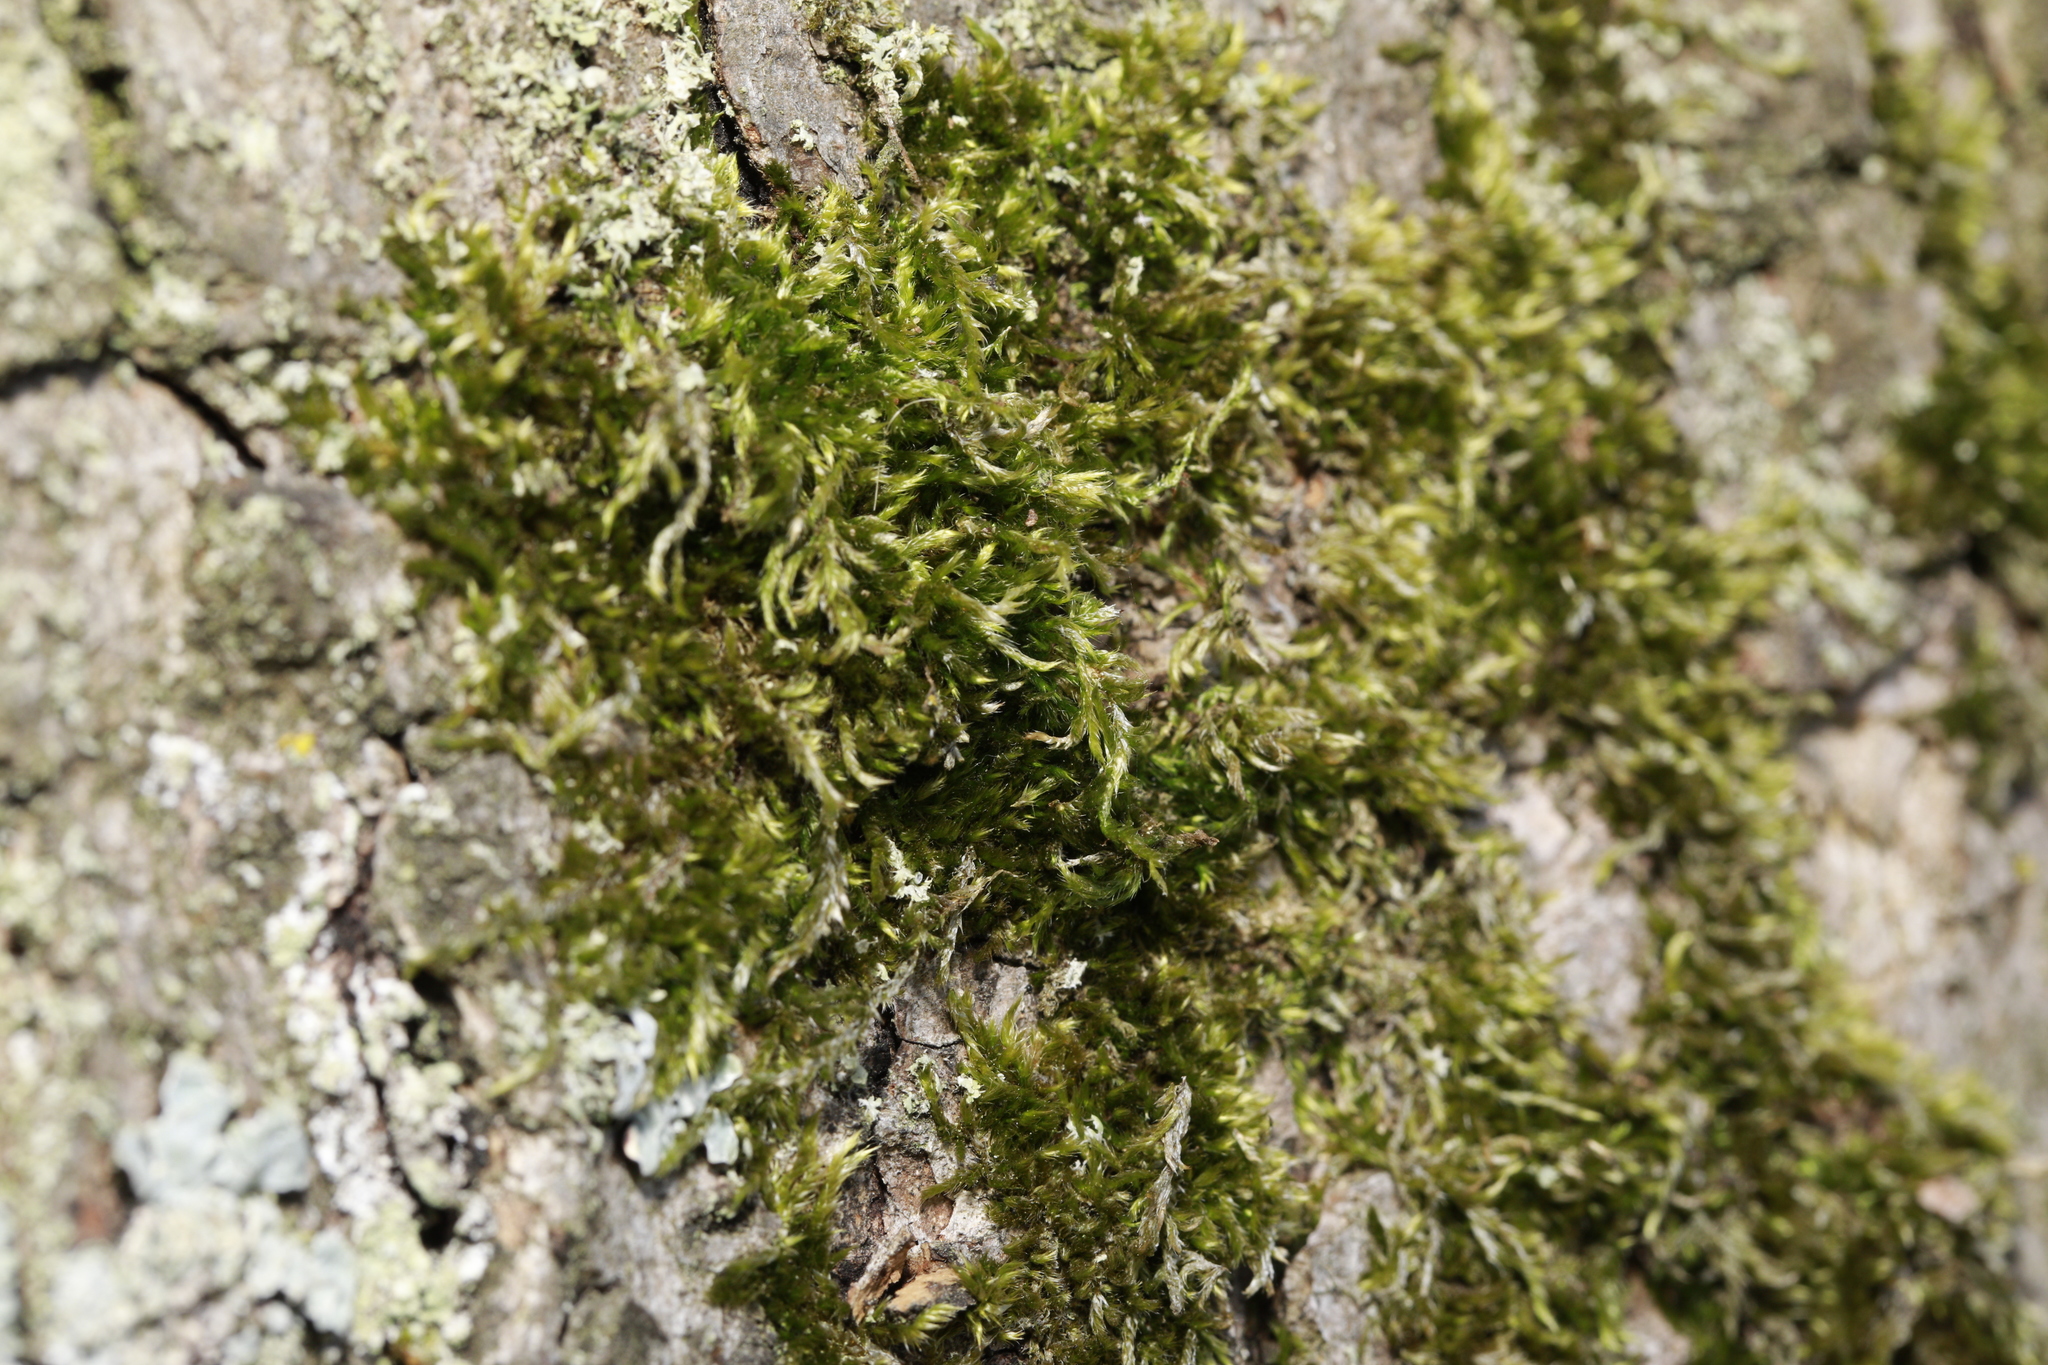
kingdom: Plantae
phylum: Bryophyta
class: Bryopsida
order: Hypnales
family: Brachytheciaceae
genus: Homalothecium
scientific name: Homalothecium sericeum
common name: Silky wall feather-moss
